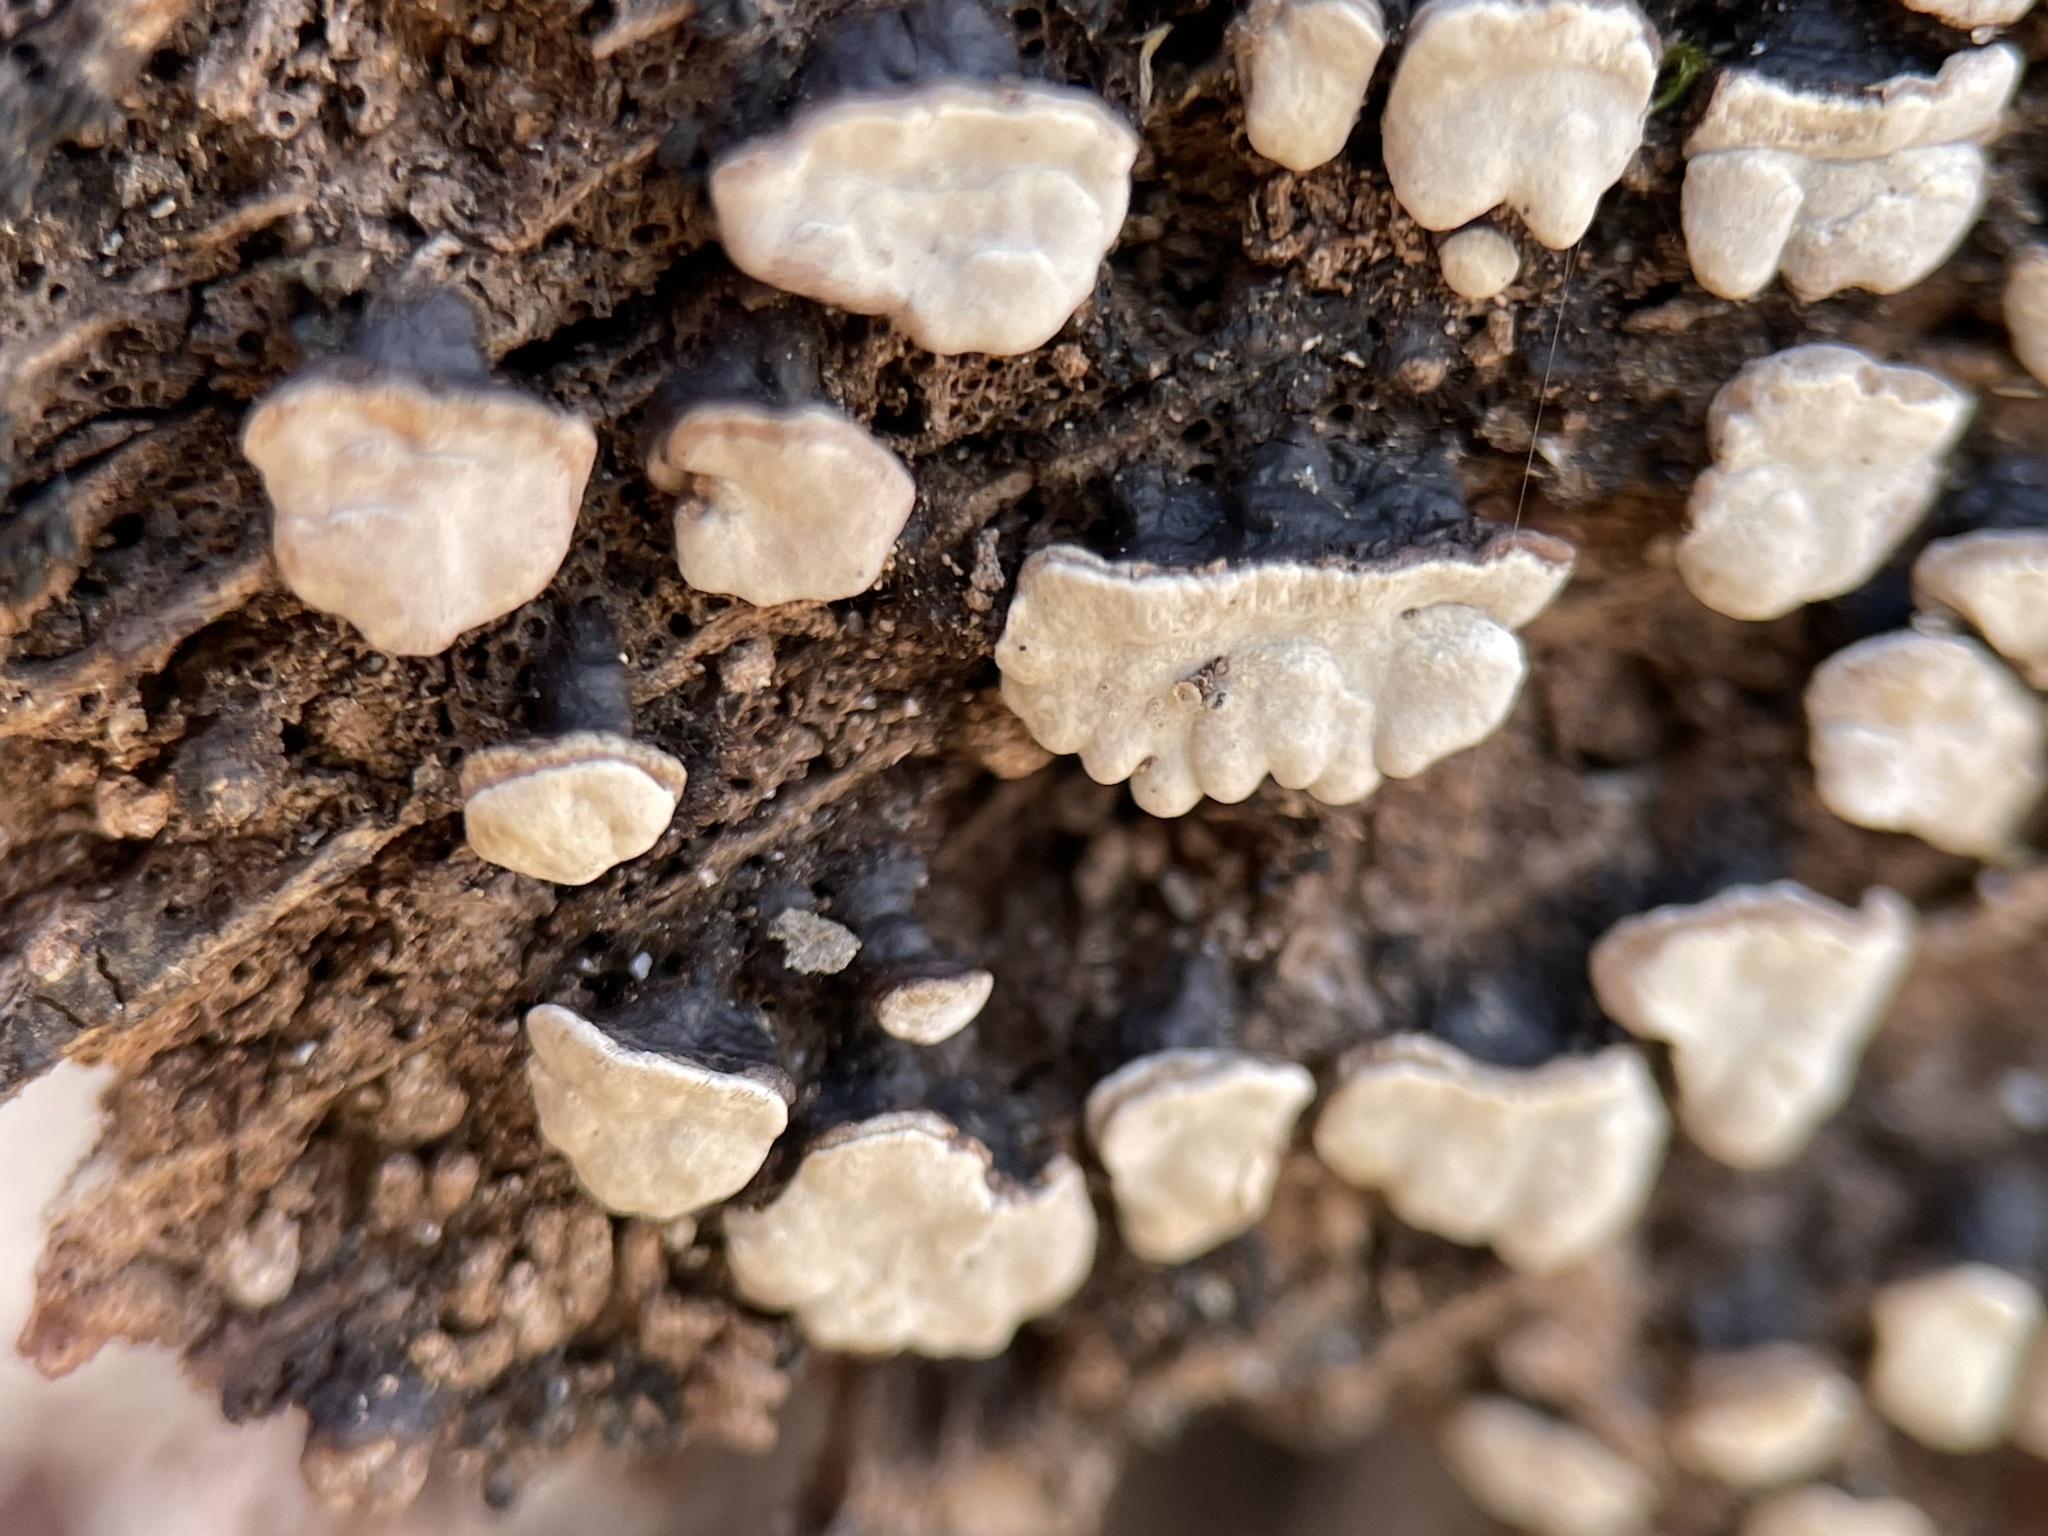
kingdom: Fungi
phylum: Basidiomycota
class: Agaricomycetes
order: Russulales
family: Stereaceae
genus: Xylobolus
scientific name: Xylobolus frustulatus
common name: Ceramic parchment
